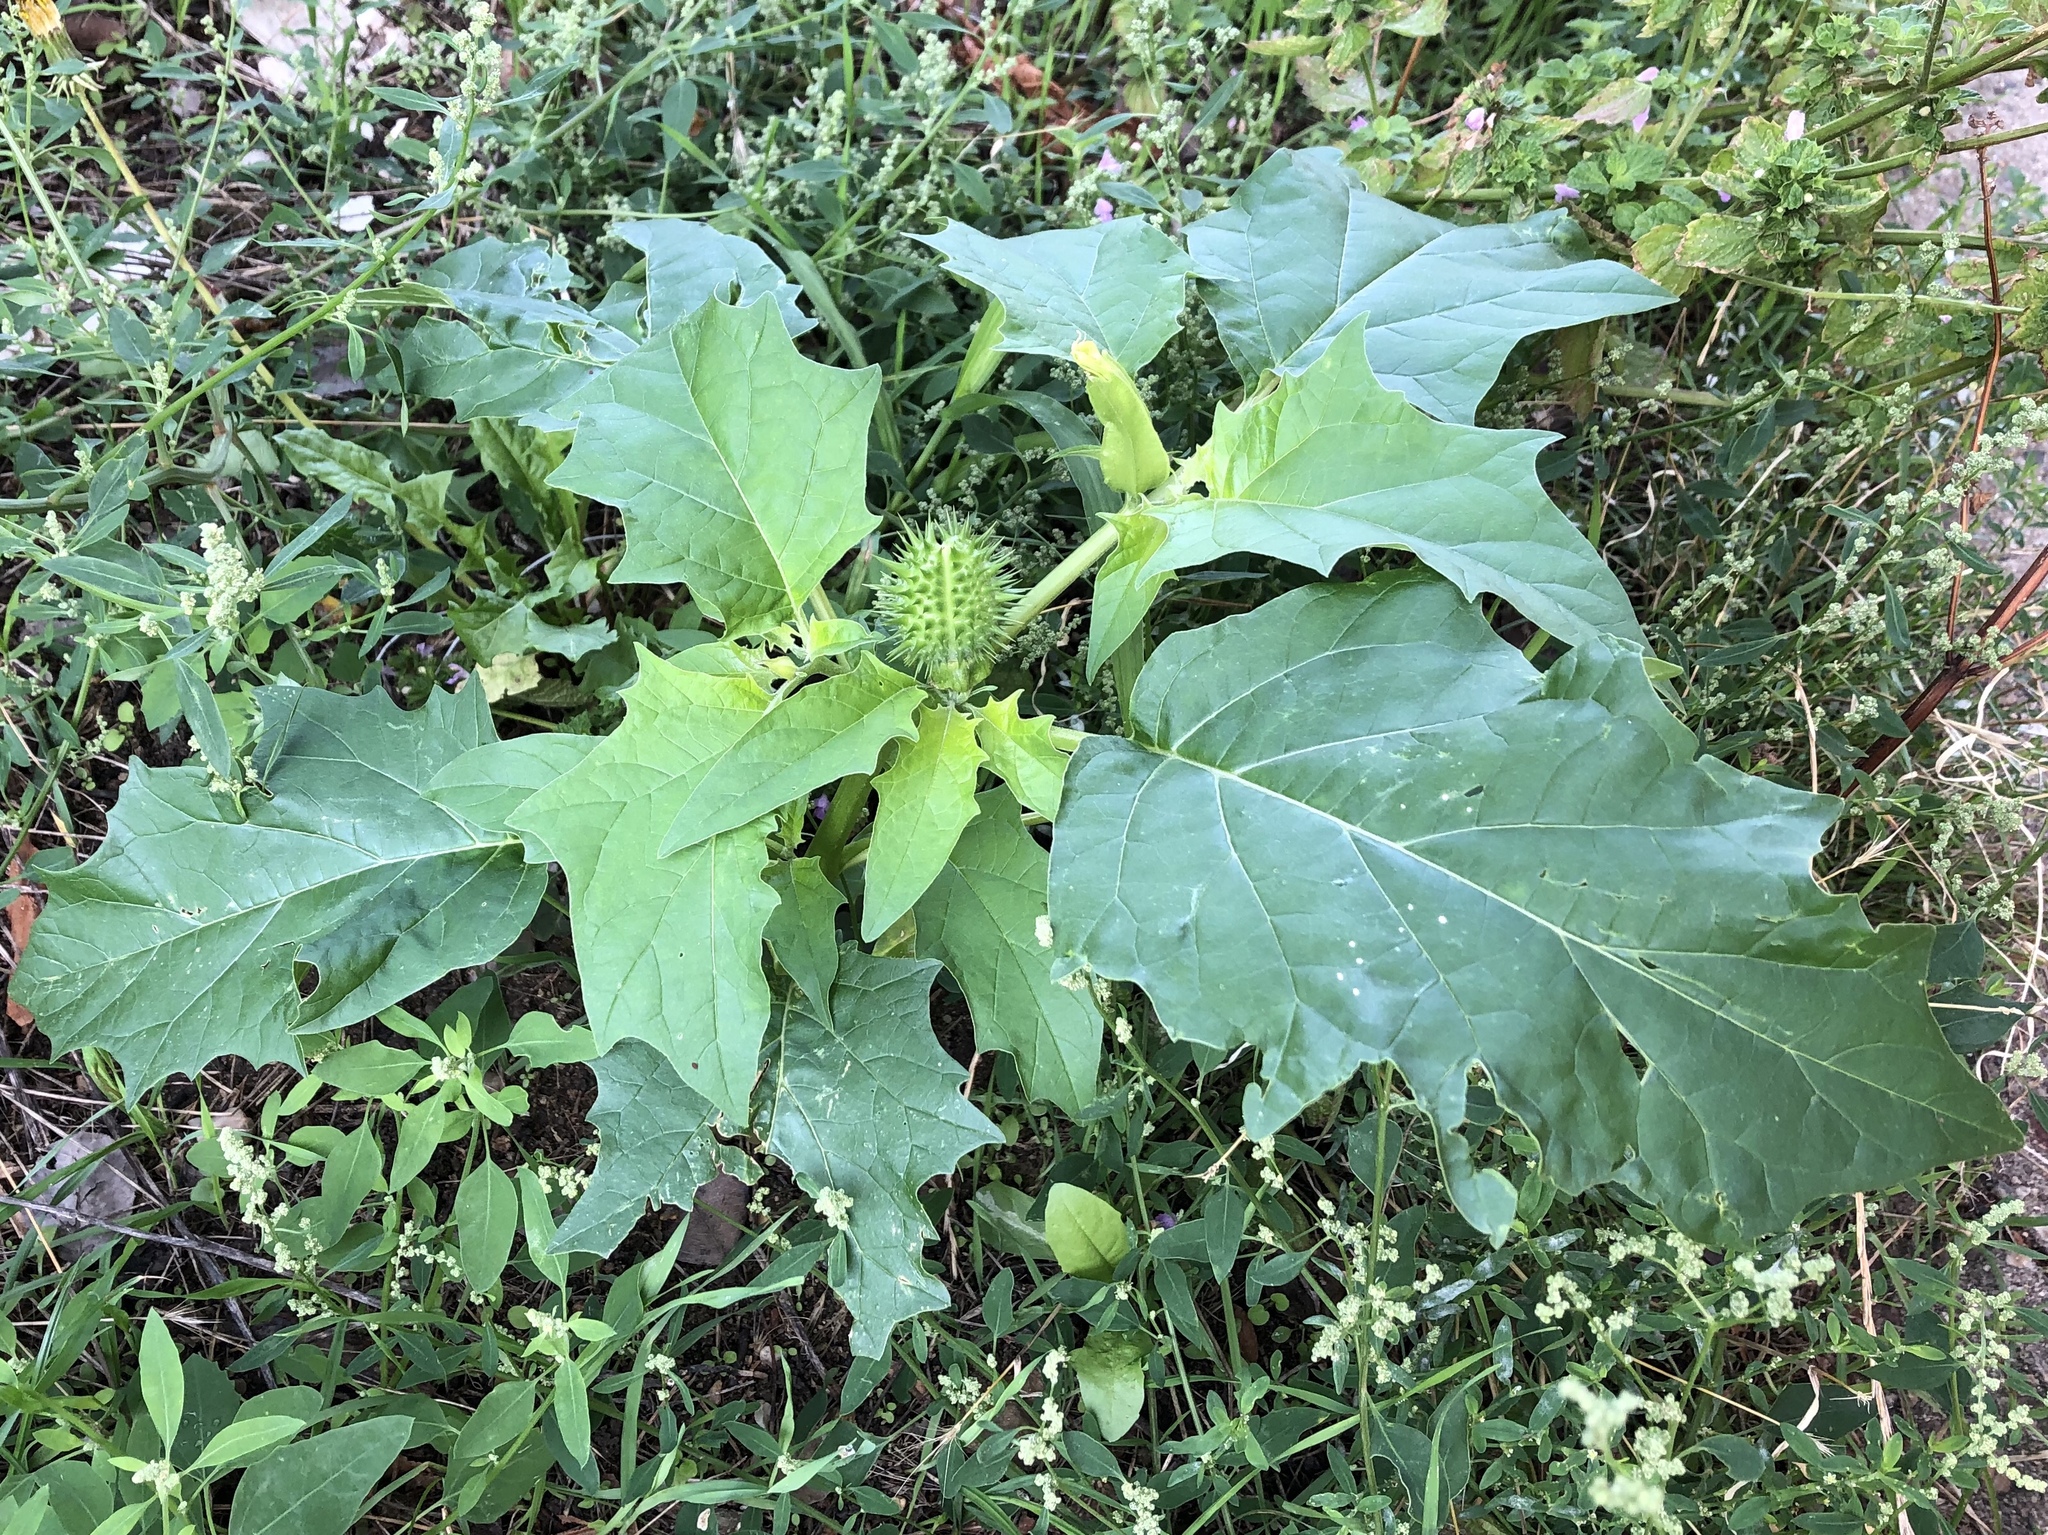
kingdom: Plantae
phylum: Tracheophyta
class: Magnoliopsida
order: Solanales
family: Solanaceae
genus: Datura
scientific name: Datura stramonium
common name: Thorn-apple
